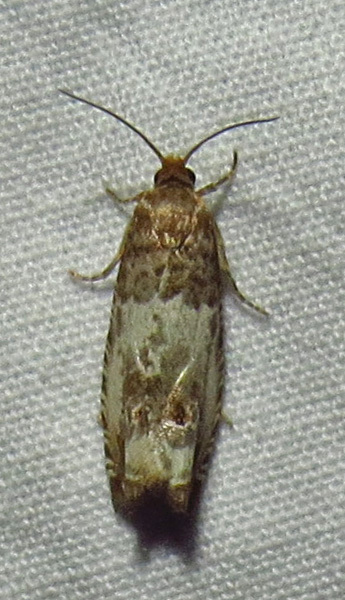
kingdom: Animalia
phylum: Arthropoda
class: Insecta
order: Lepidoptera
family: Tortricidae
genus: Notocelia
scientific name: Notocelia rosaecolana
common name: Common rose bell
